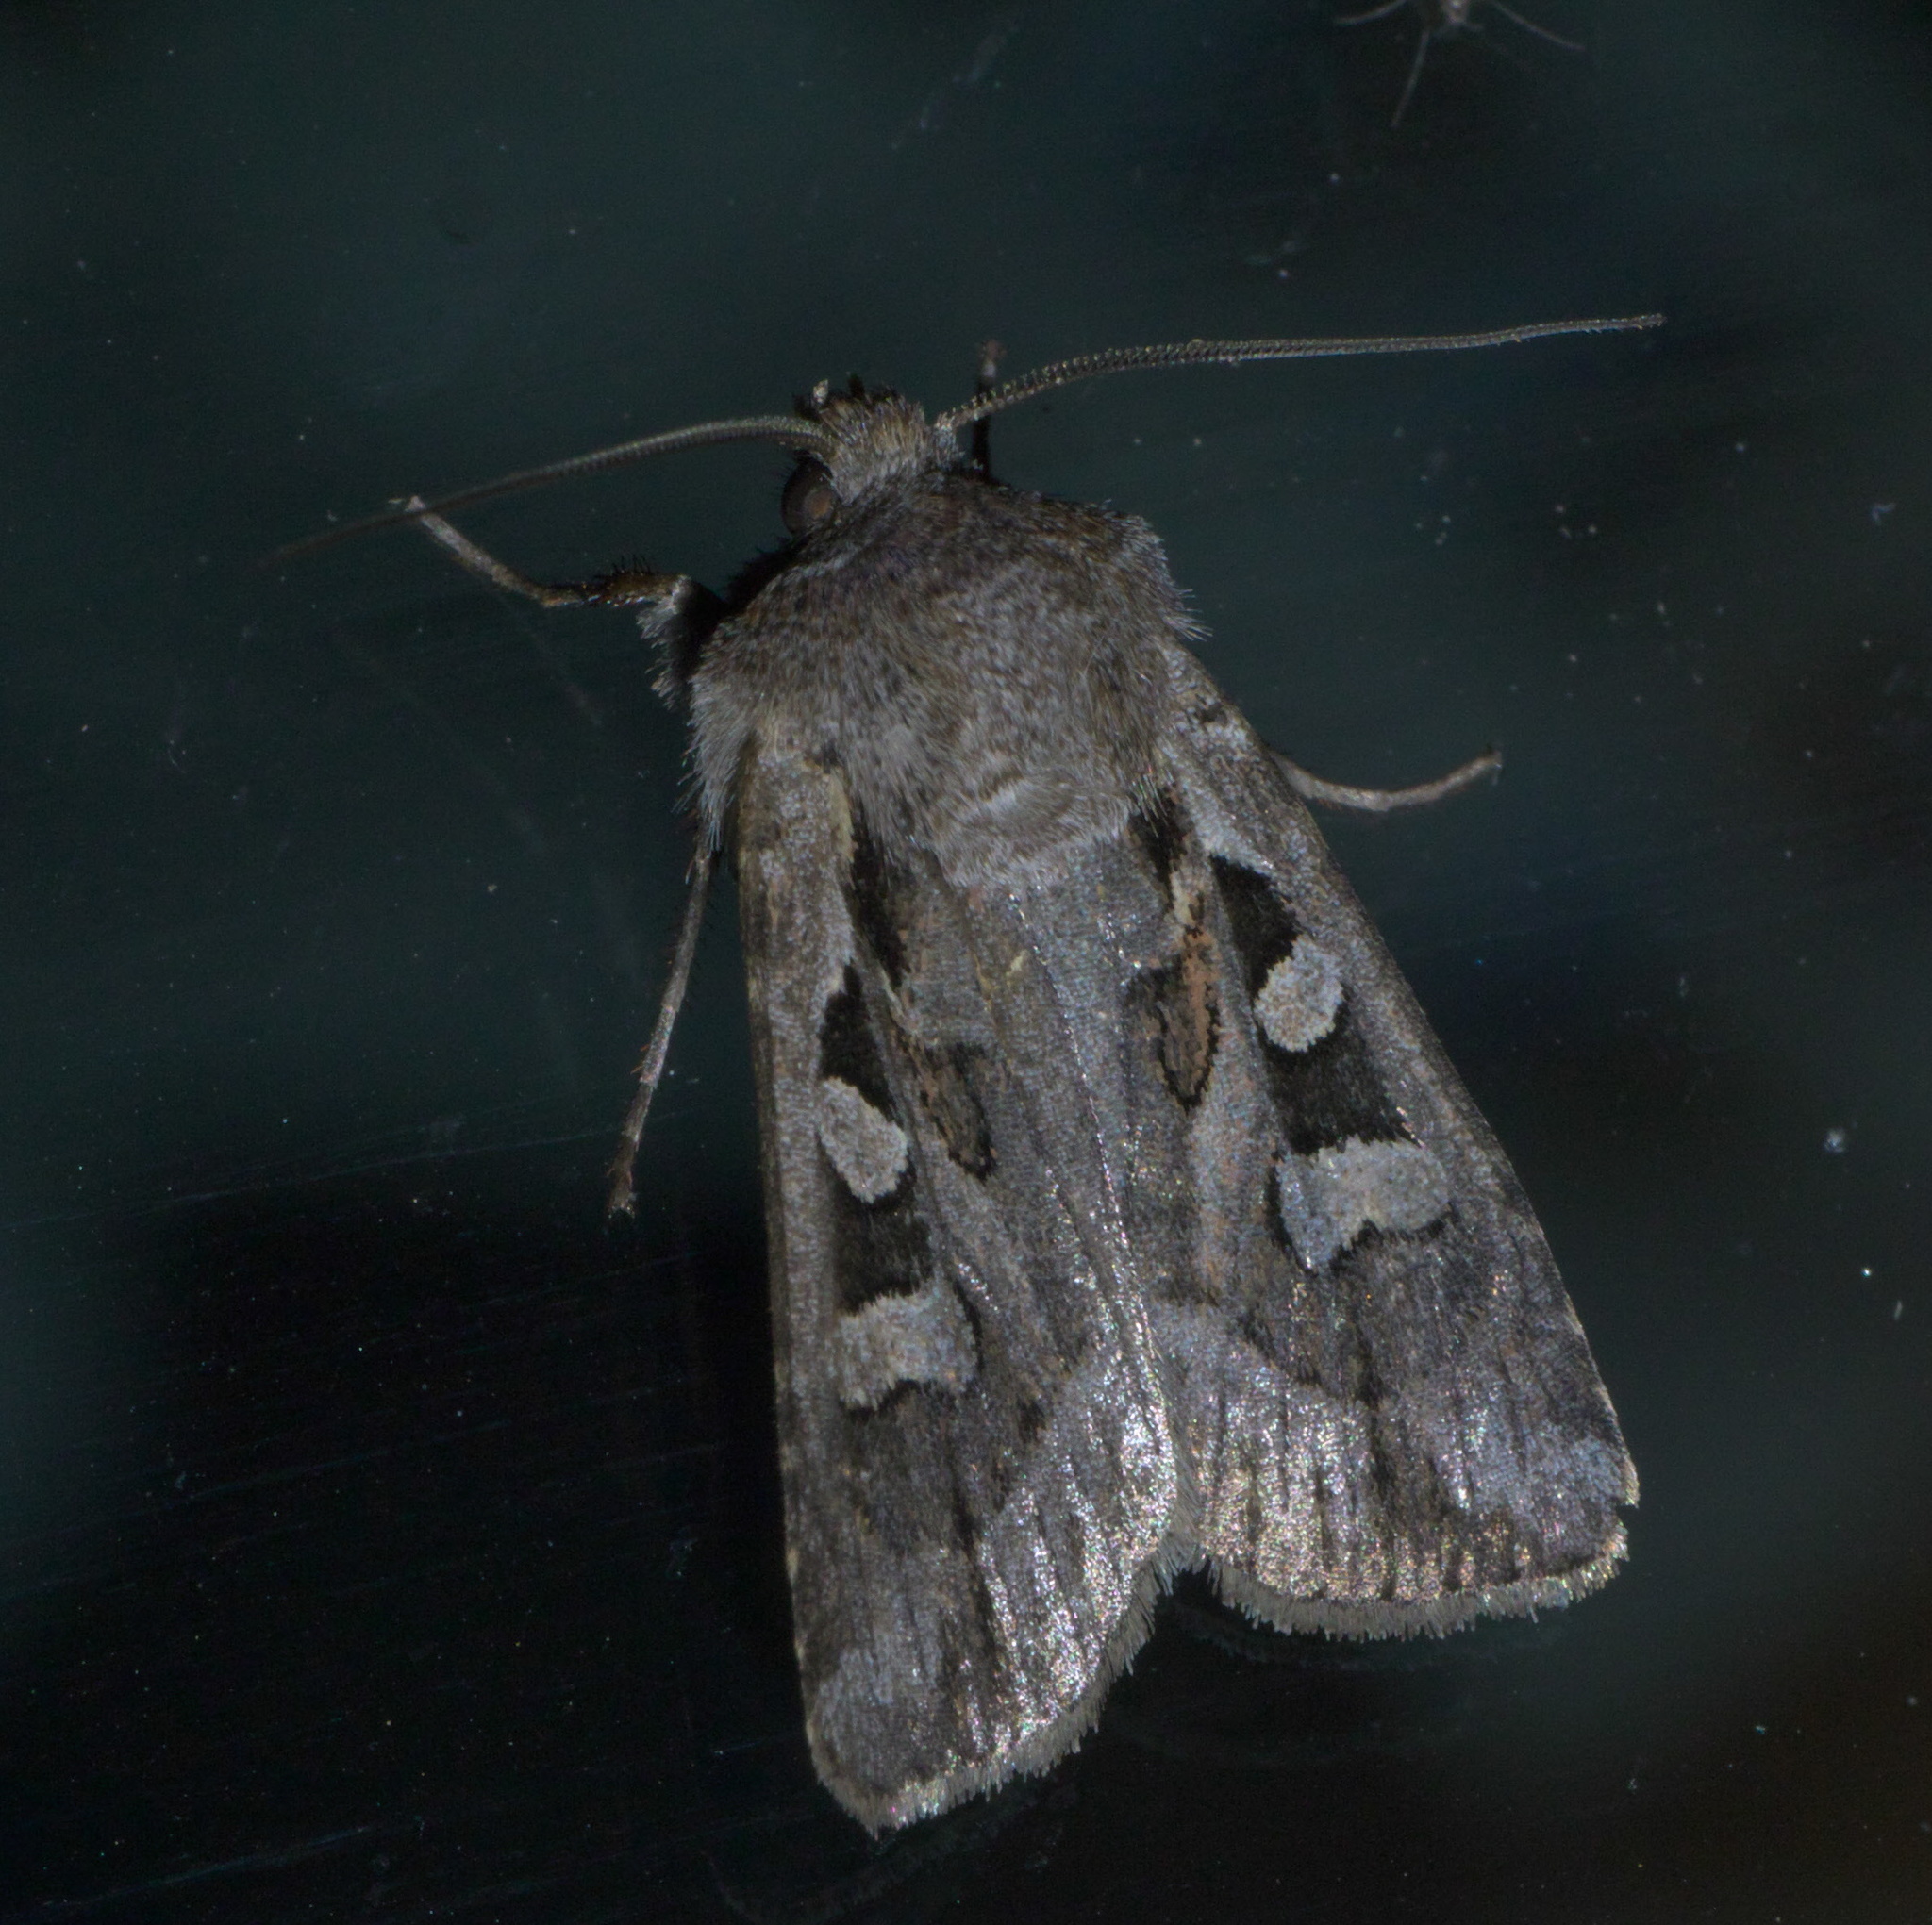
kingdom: Animalia
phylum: Arthropoda
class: Insecta
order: Lepidoptera
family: Noctuidae
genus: Euxoa
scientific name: Euxoa auxiliaris
